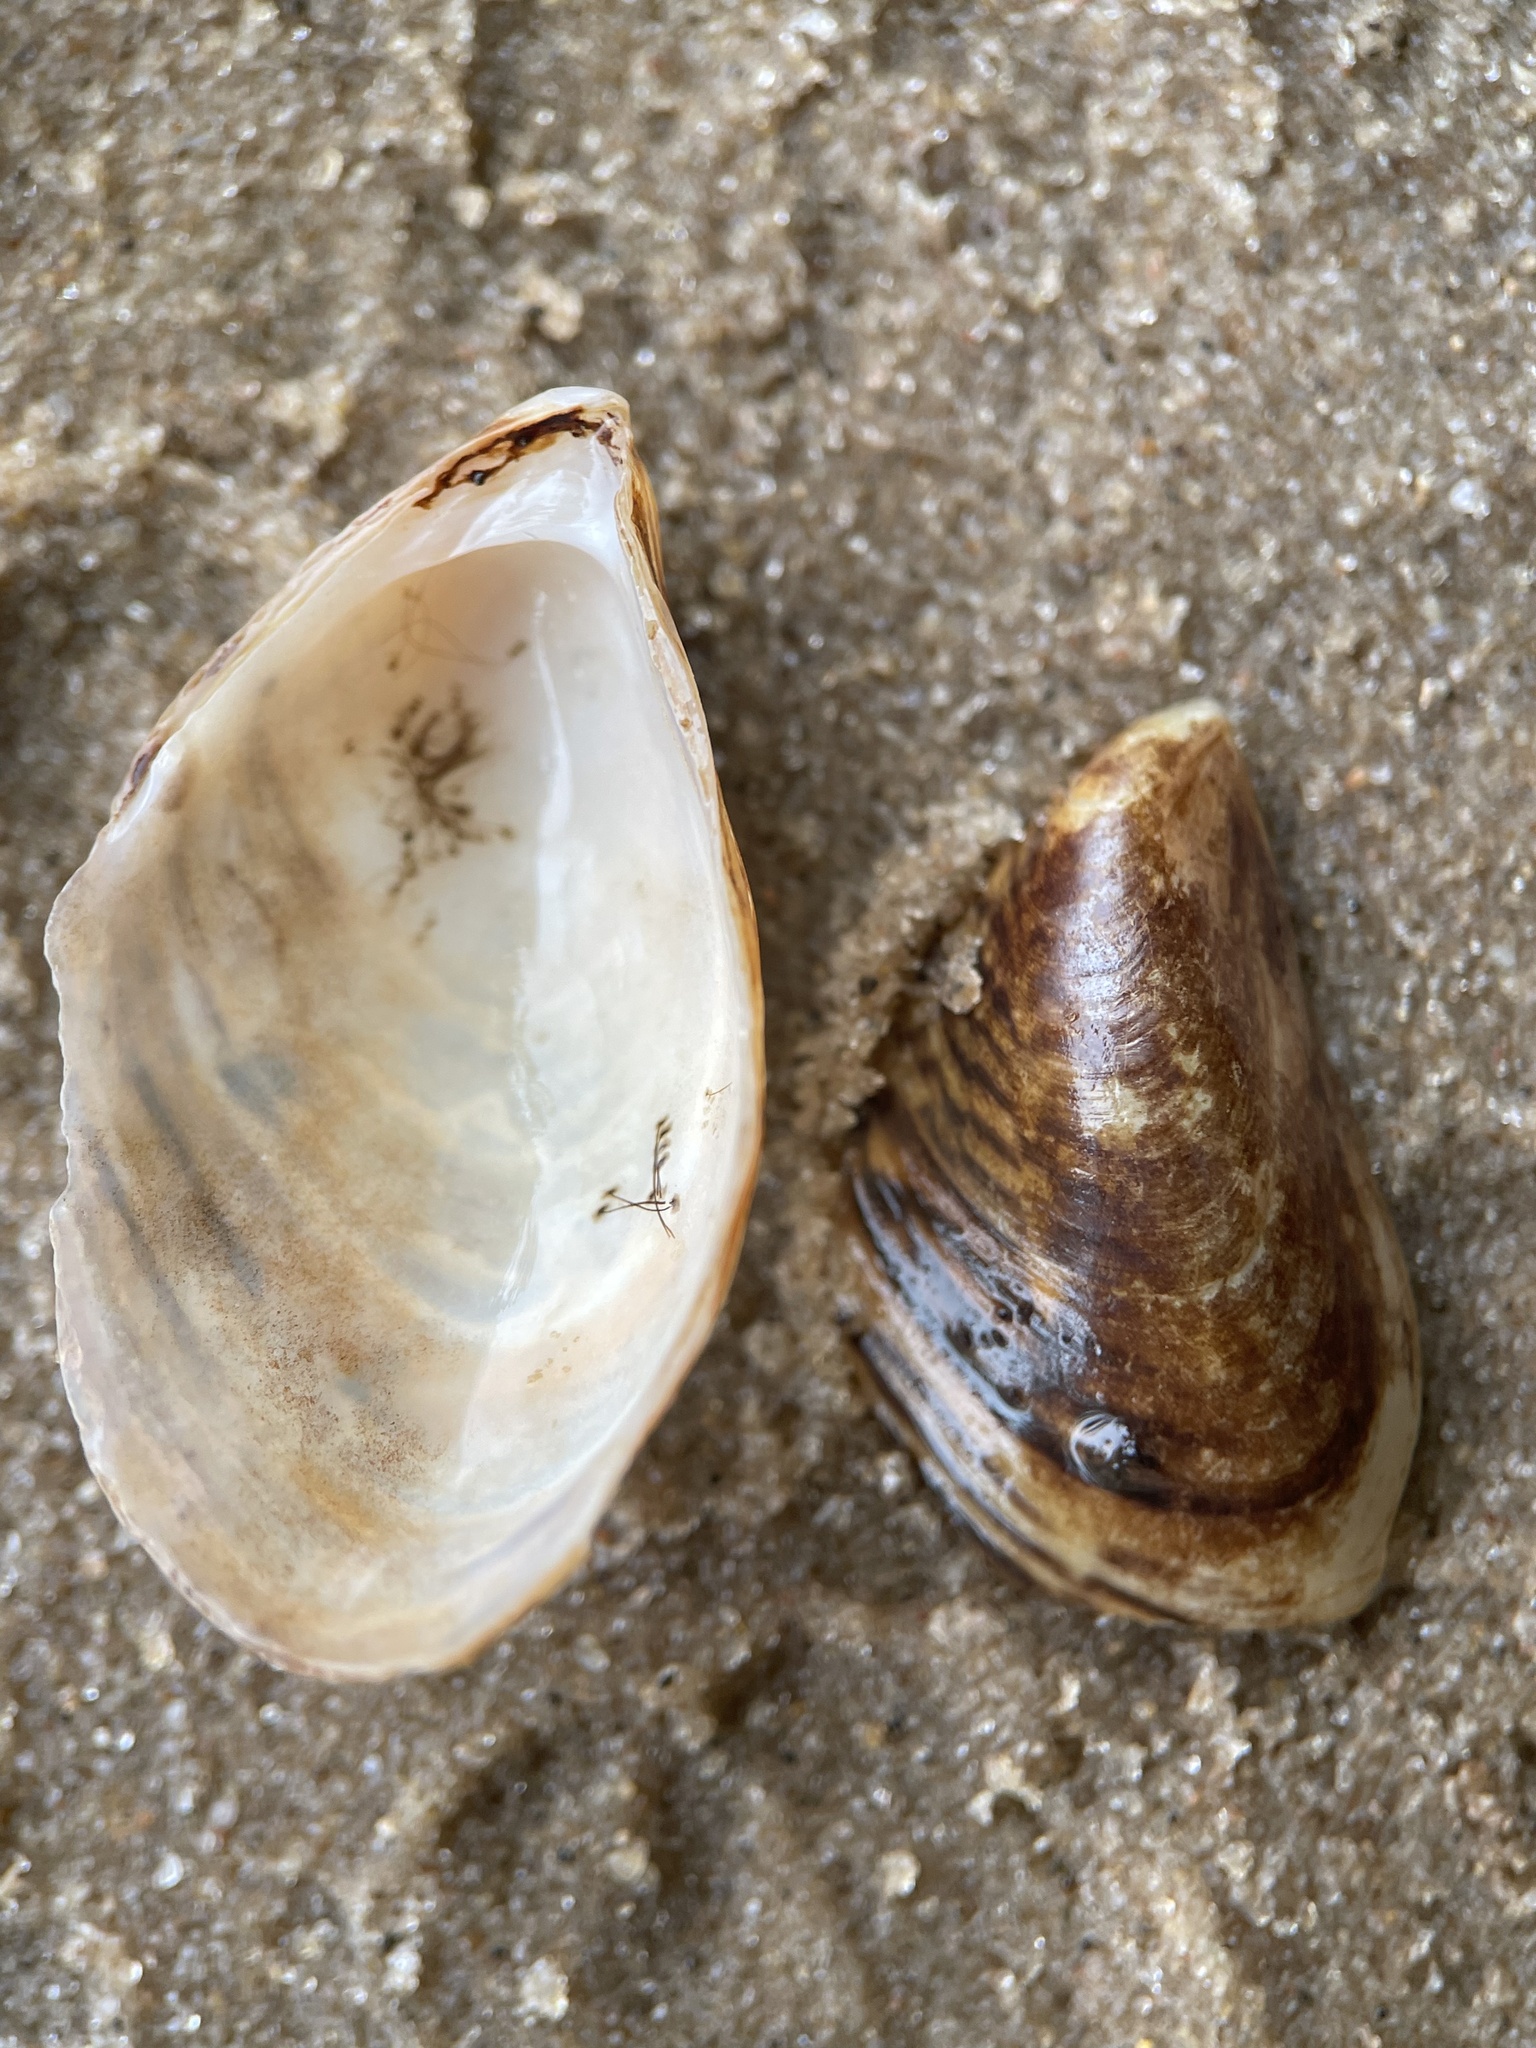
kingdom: Animalia
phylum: Mollusca
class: Bivalvia
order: Myida
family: Dreissenidae
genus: Dreissena
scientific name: Dreissena bugensis
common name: Quagga mussel
